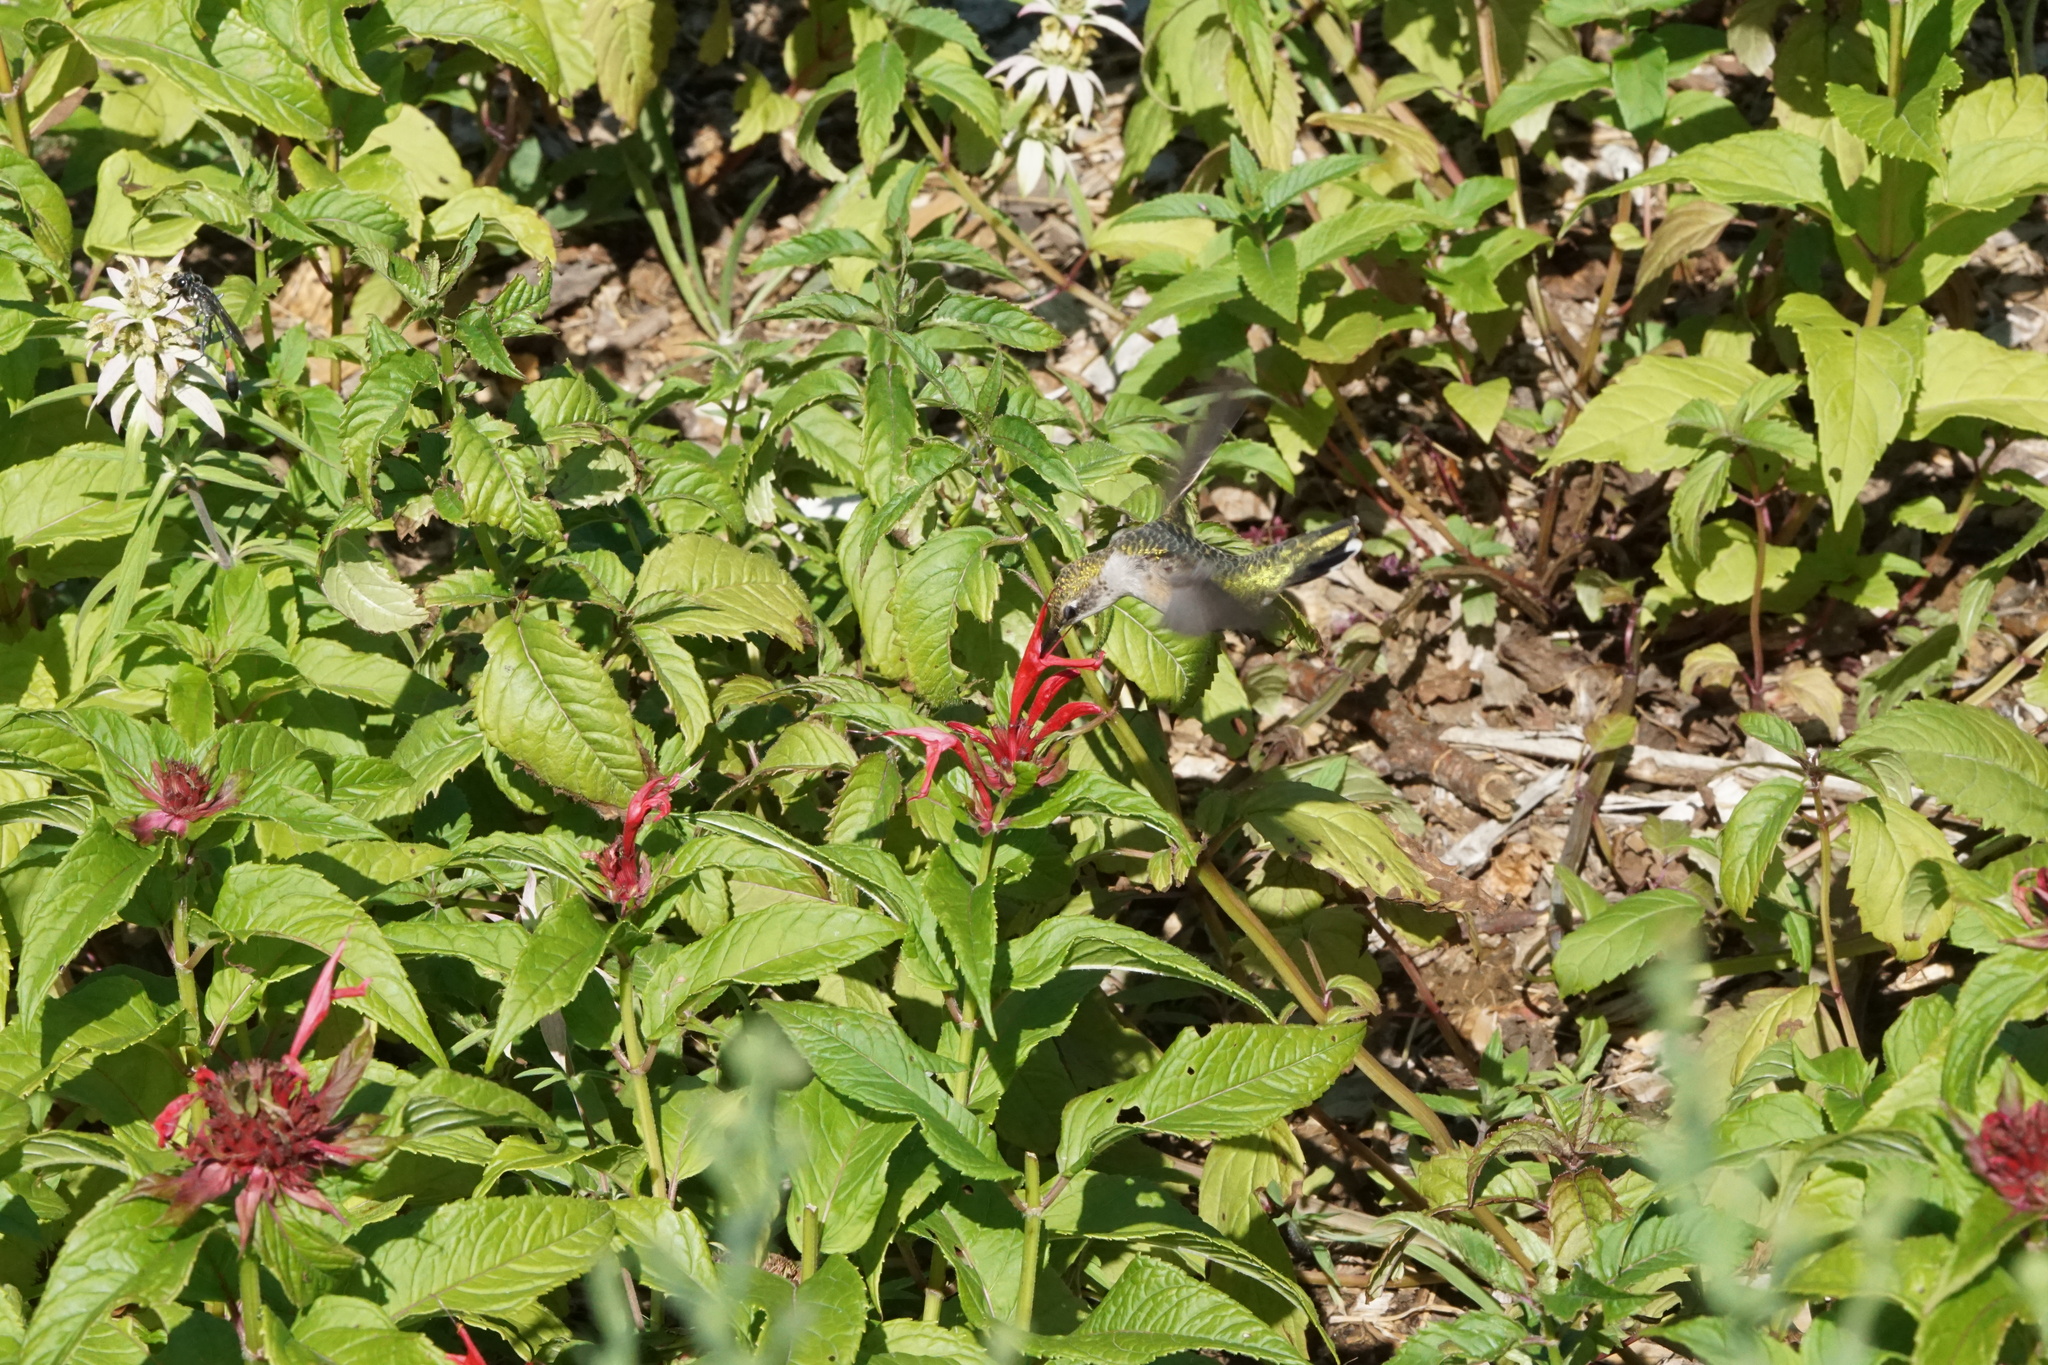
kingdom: Animalia
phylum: Chordata
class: Aves
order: Apodiformes
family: Trochilidae
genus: Archilochus
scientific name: Archilochus colubris
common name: Ruby-throated hummingbird
